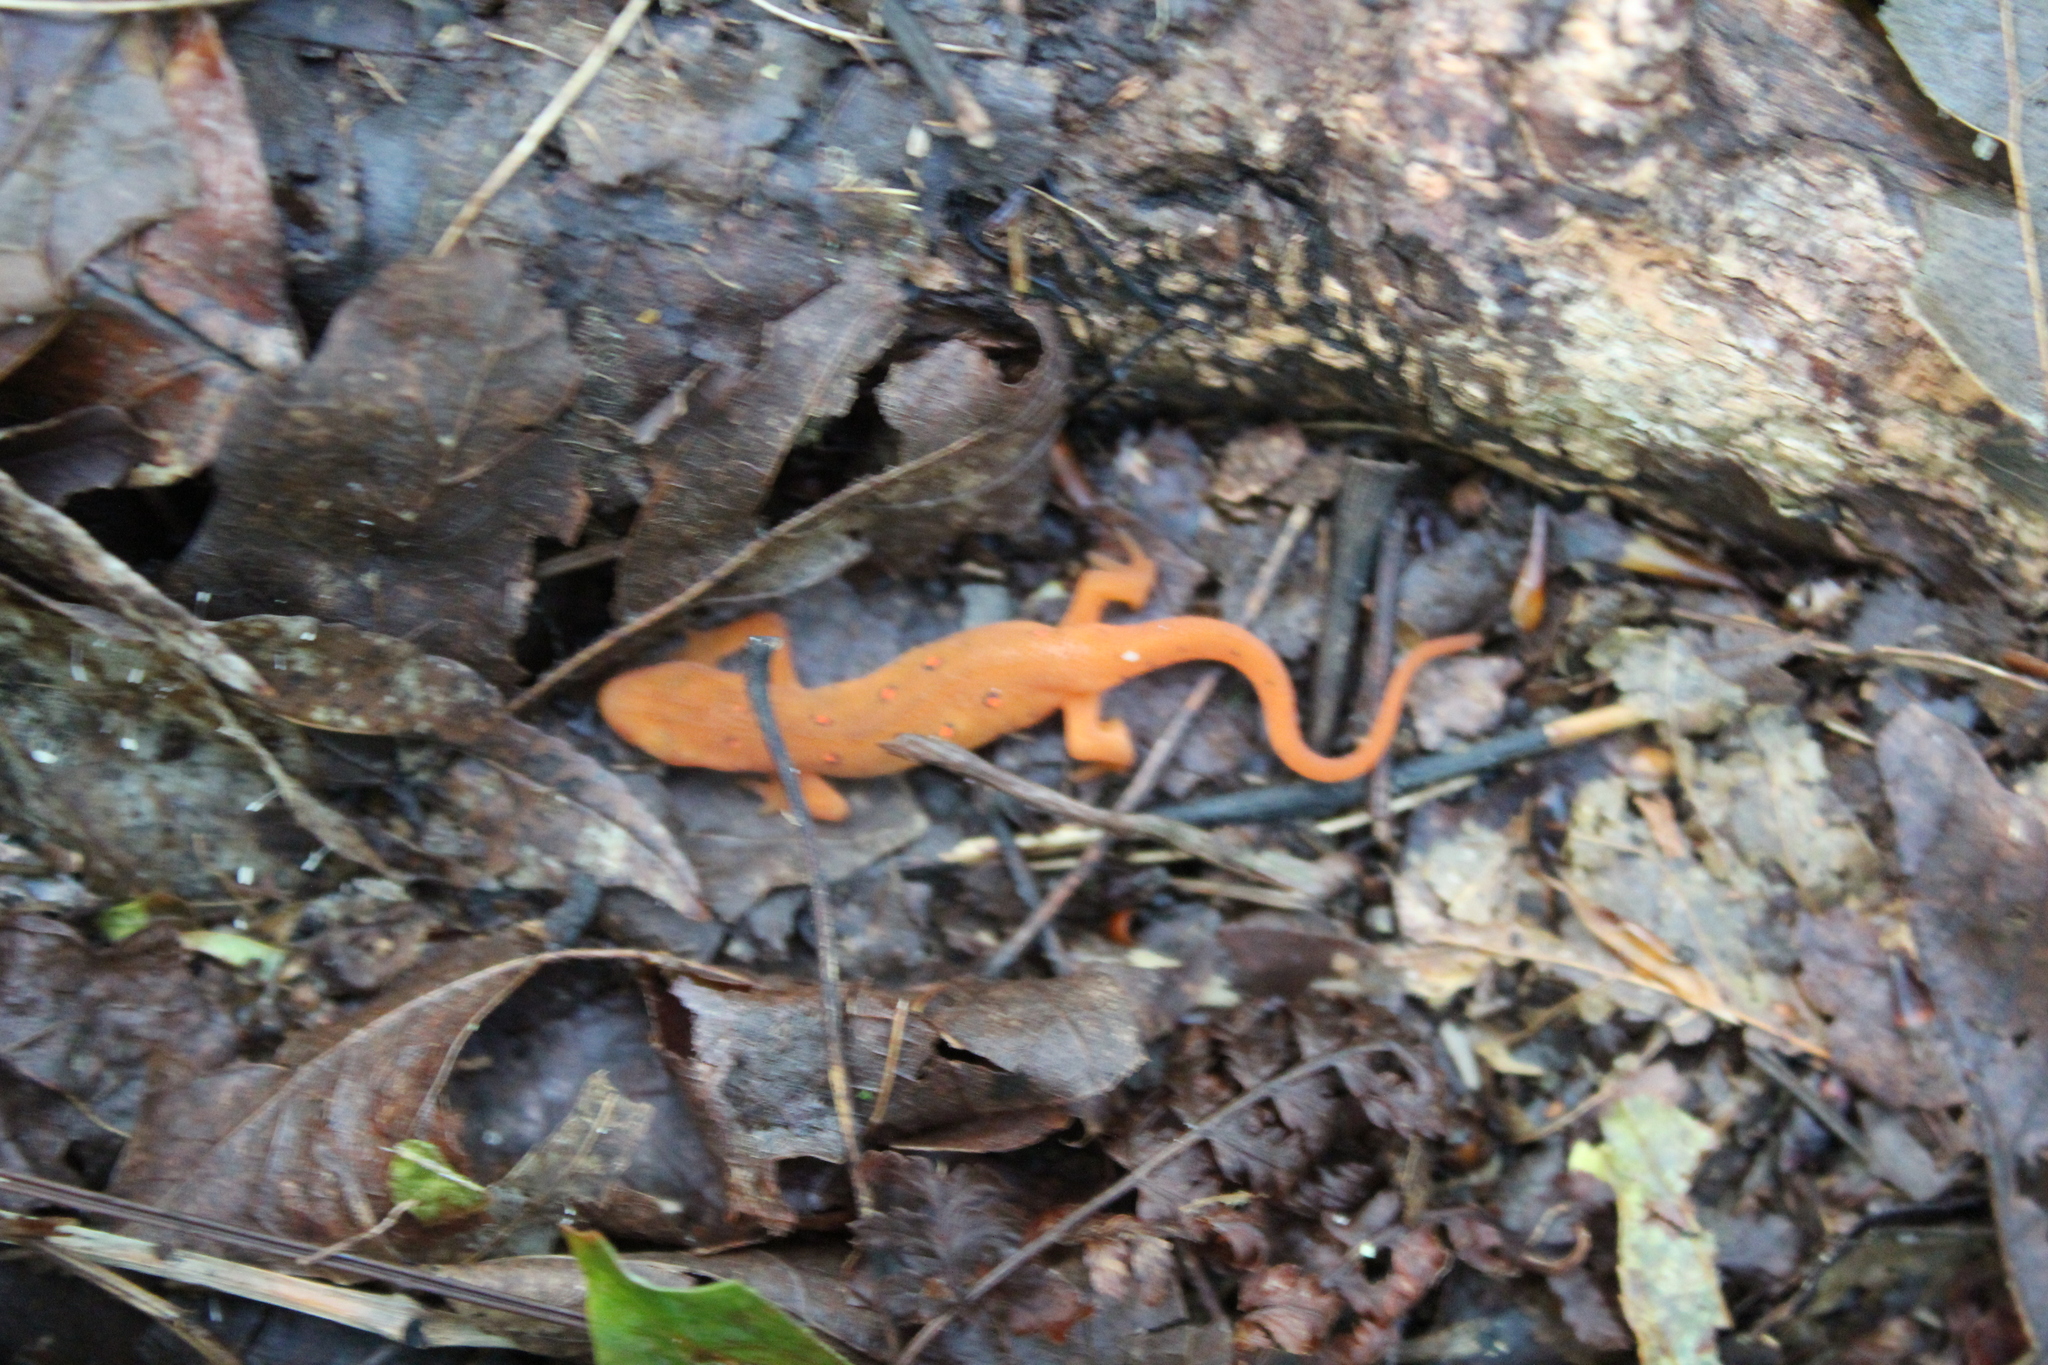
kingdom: Animalia
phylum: Chordata
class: Amphibia
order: Caudata
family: Salamandridae
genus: Notophthalmus
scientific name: Notophthalmus viridescens
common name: Eastern newt
